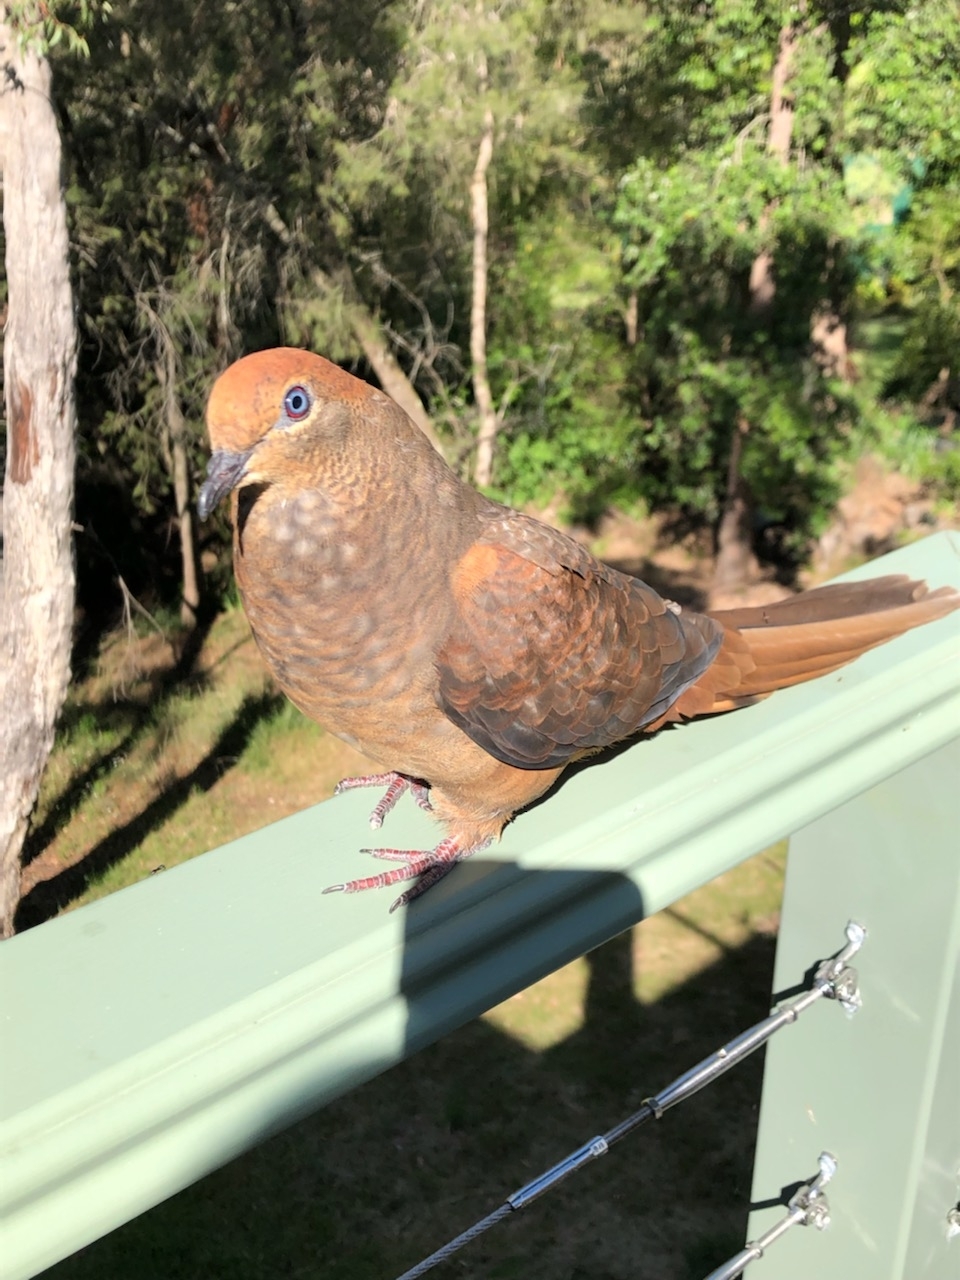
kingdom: Animalia
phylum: Chordata
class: Aves
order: Columbiformes
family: Columbidae
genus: Macropygia
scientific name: Macropygia phasianella
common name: Brown cuckoo-dove
